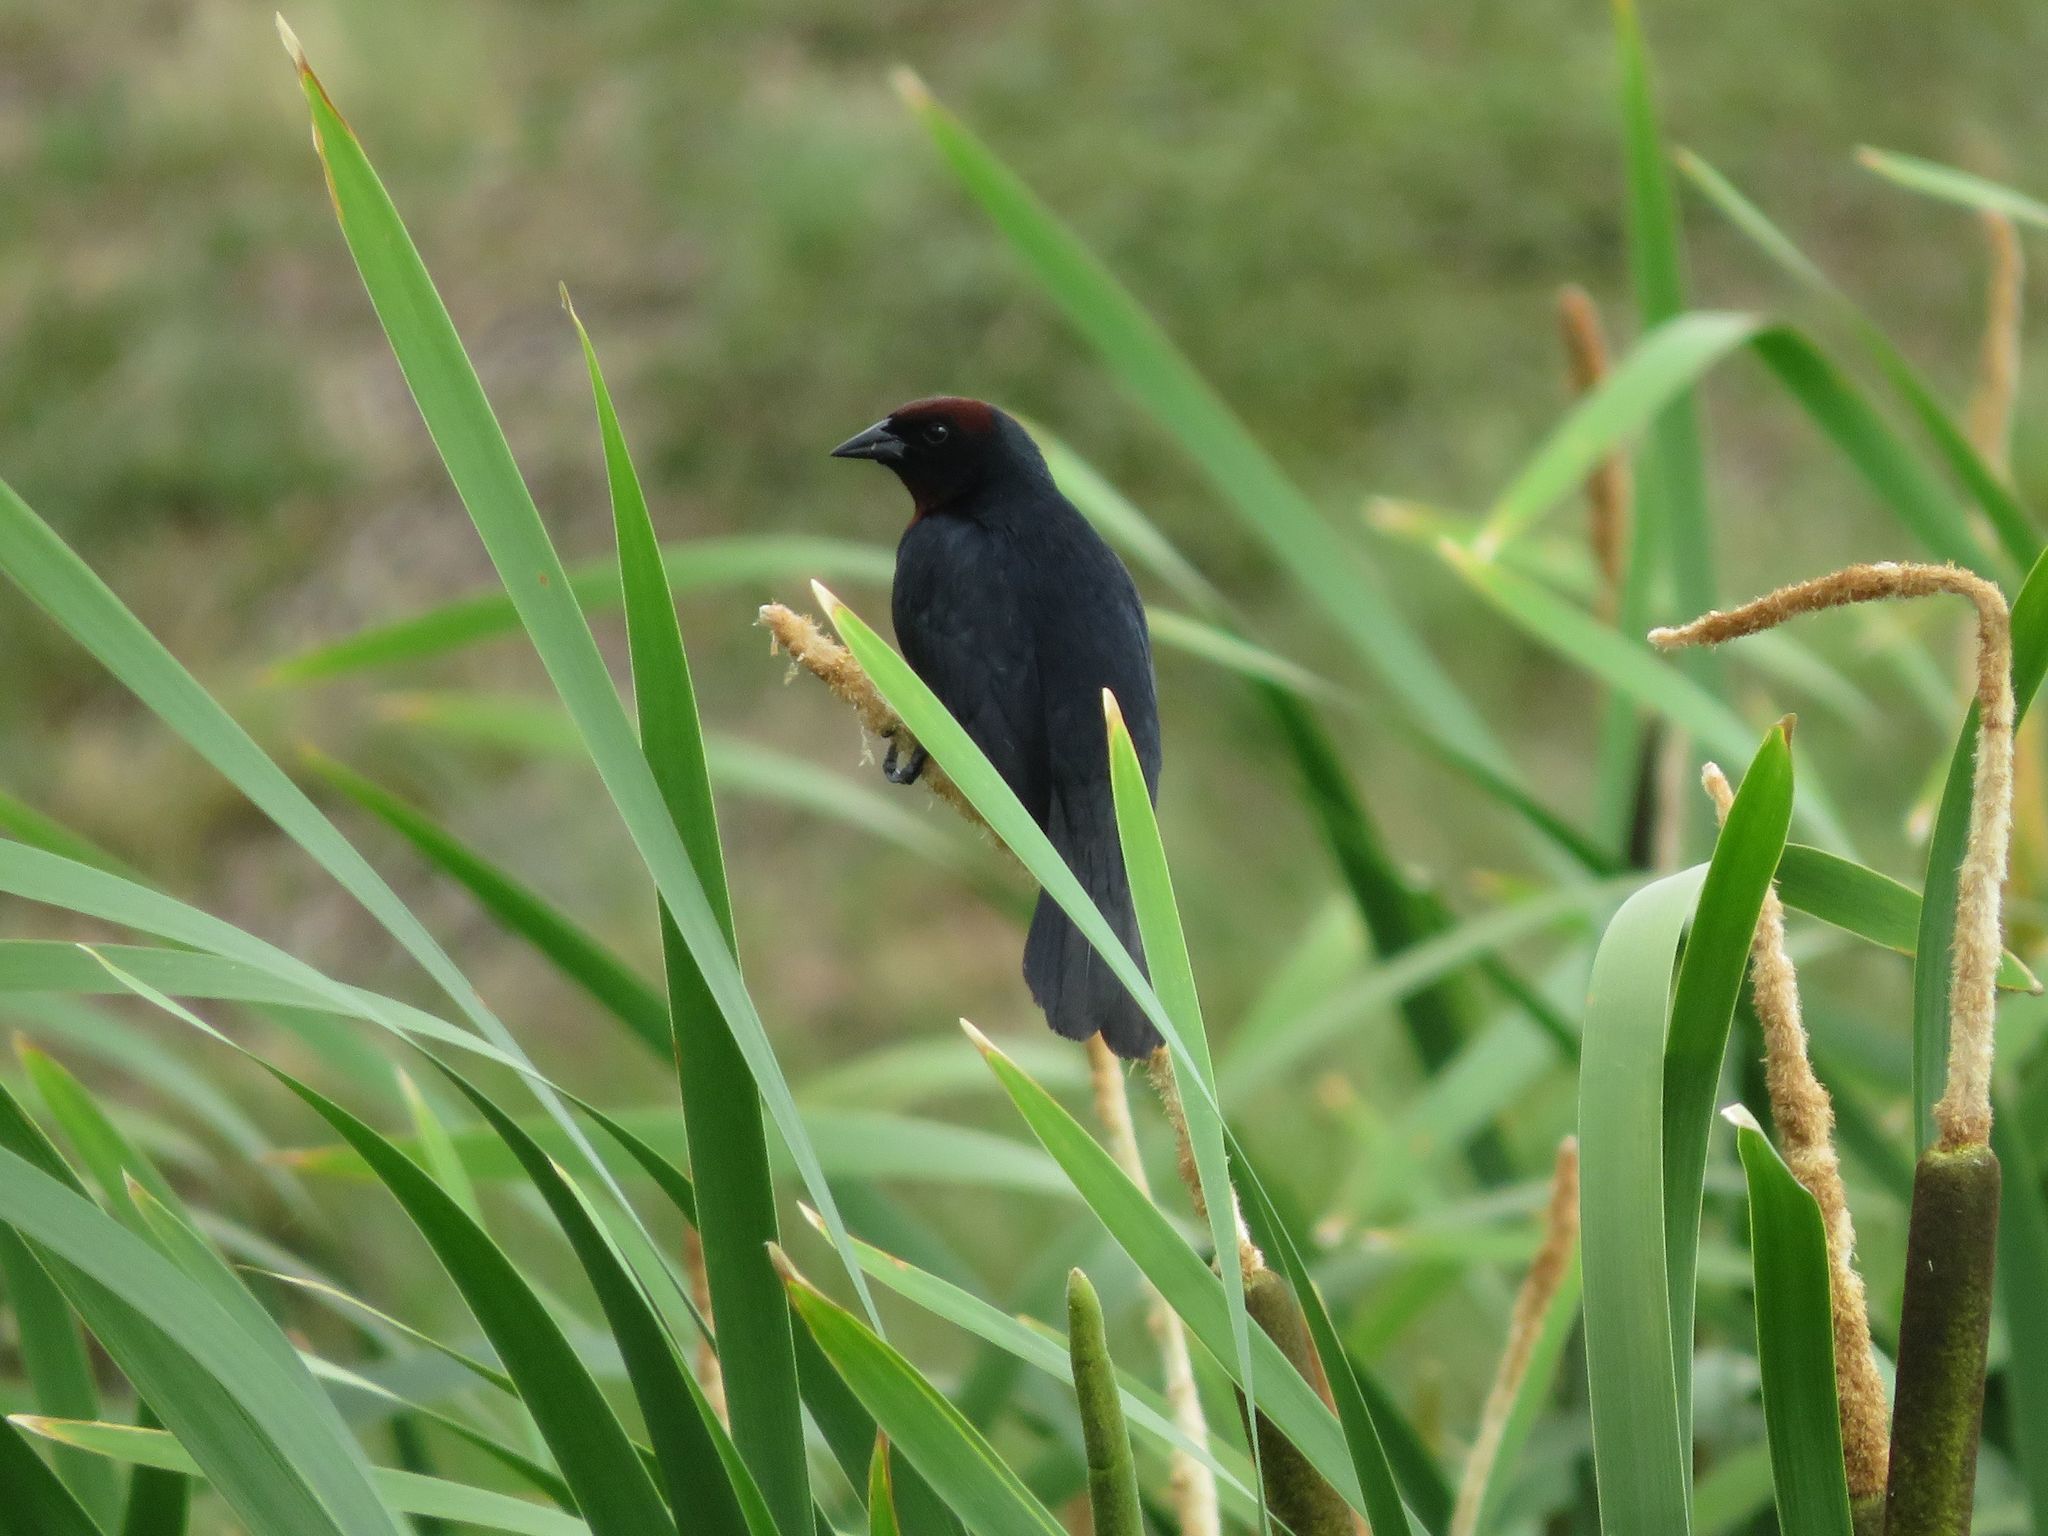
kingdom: Animalia
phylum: Chordata
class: Aves
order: Passeriformes
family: Icteridae
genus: Chrysomus
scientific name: Chrysomus ruficapillus
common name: Chestnut-capped blackbird
